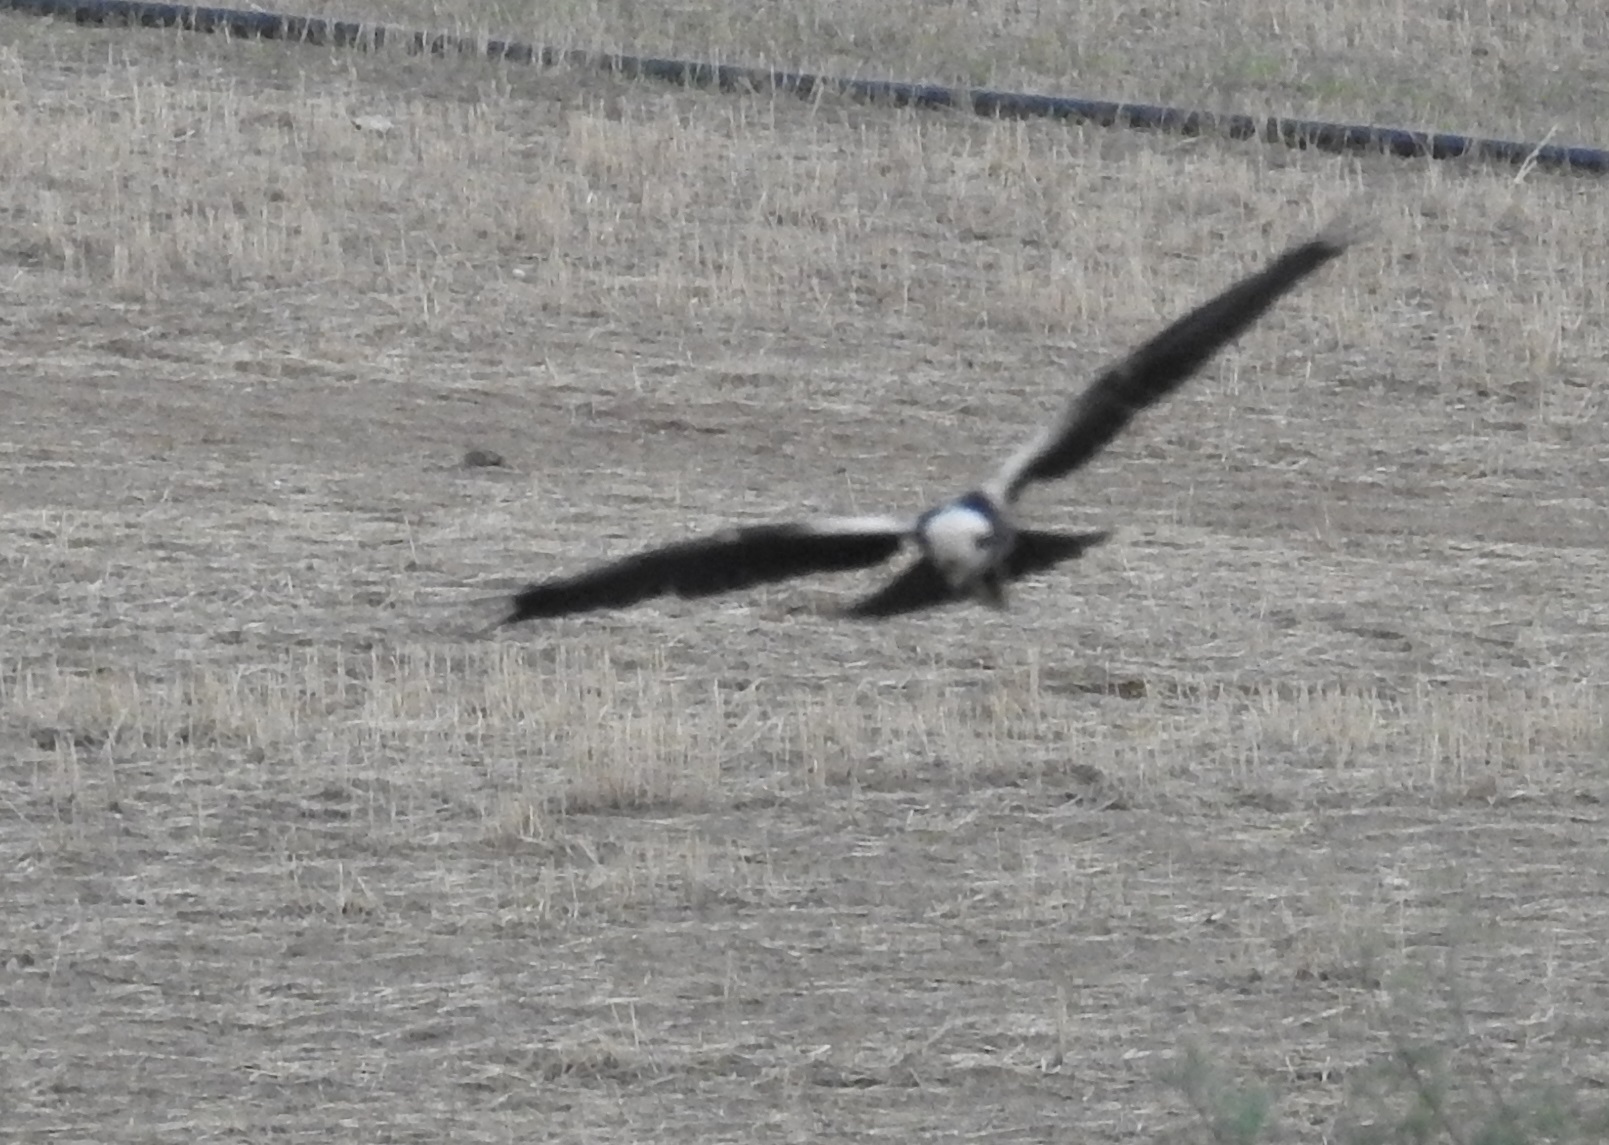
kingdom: Animalia
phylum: Chordata
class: Aves
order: Accipitriformes
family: Accipitridae
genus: Circus
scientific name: Circus aeruginosus
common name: Western marsh harrier
